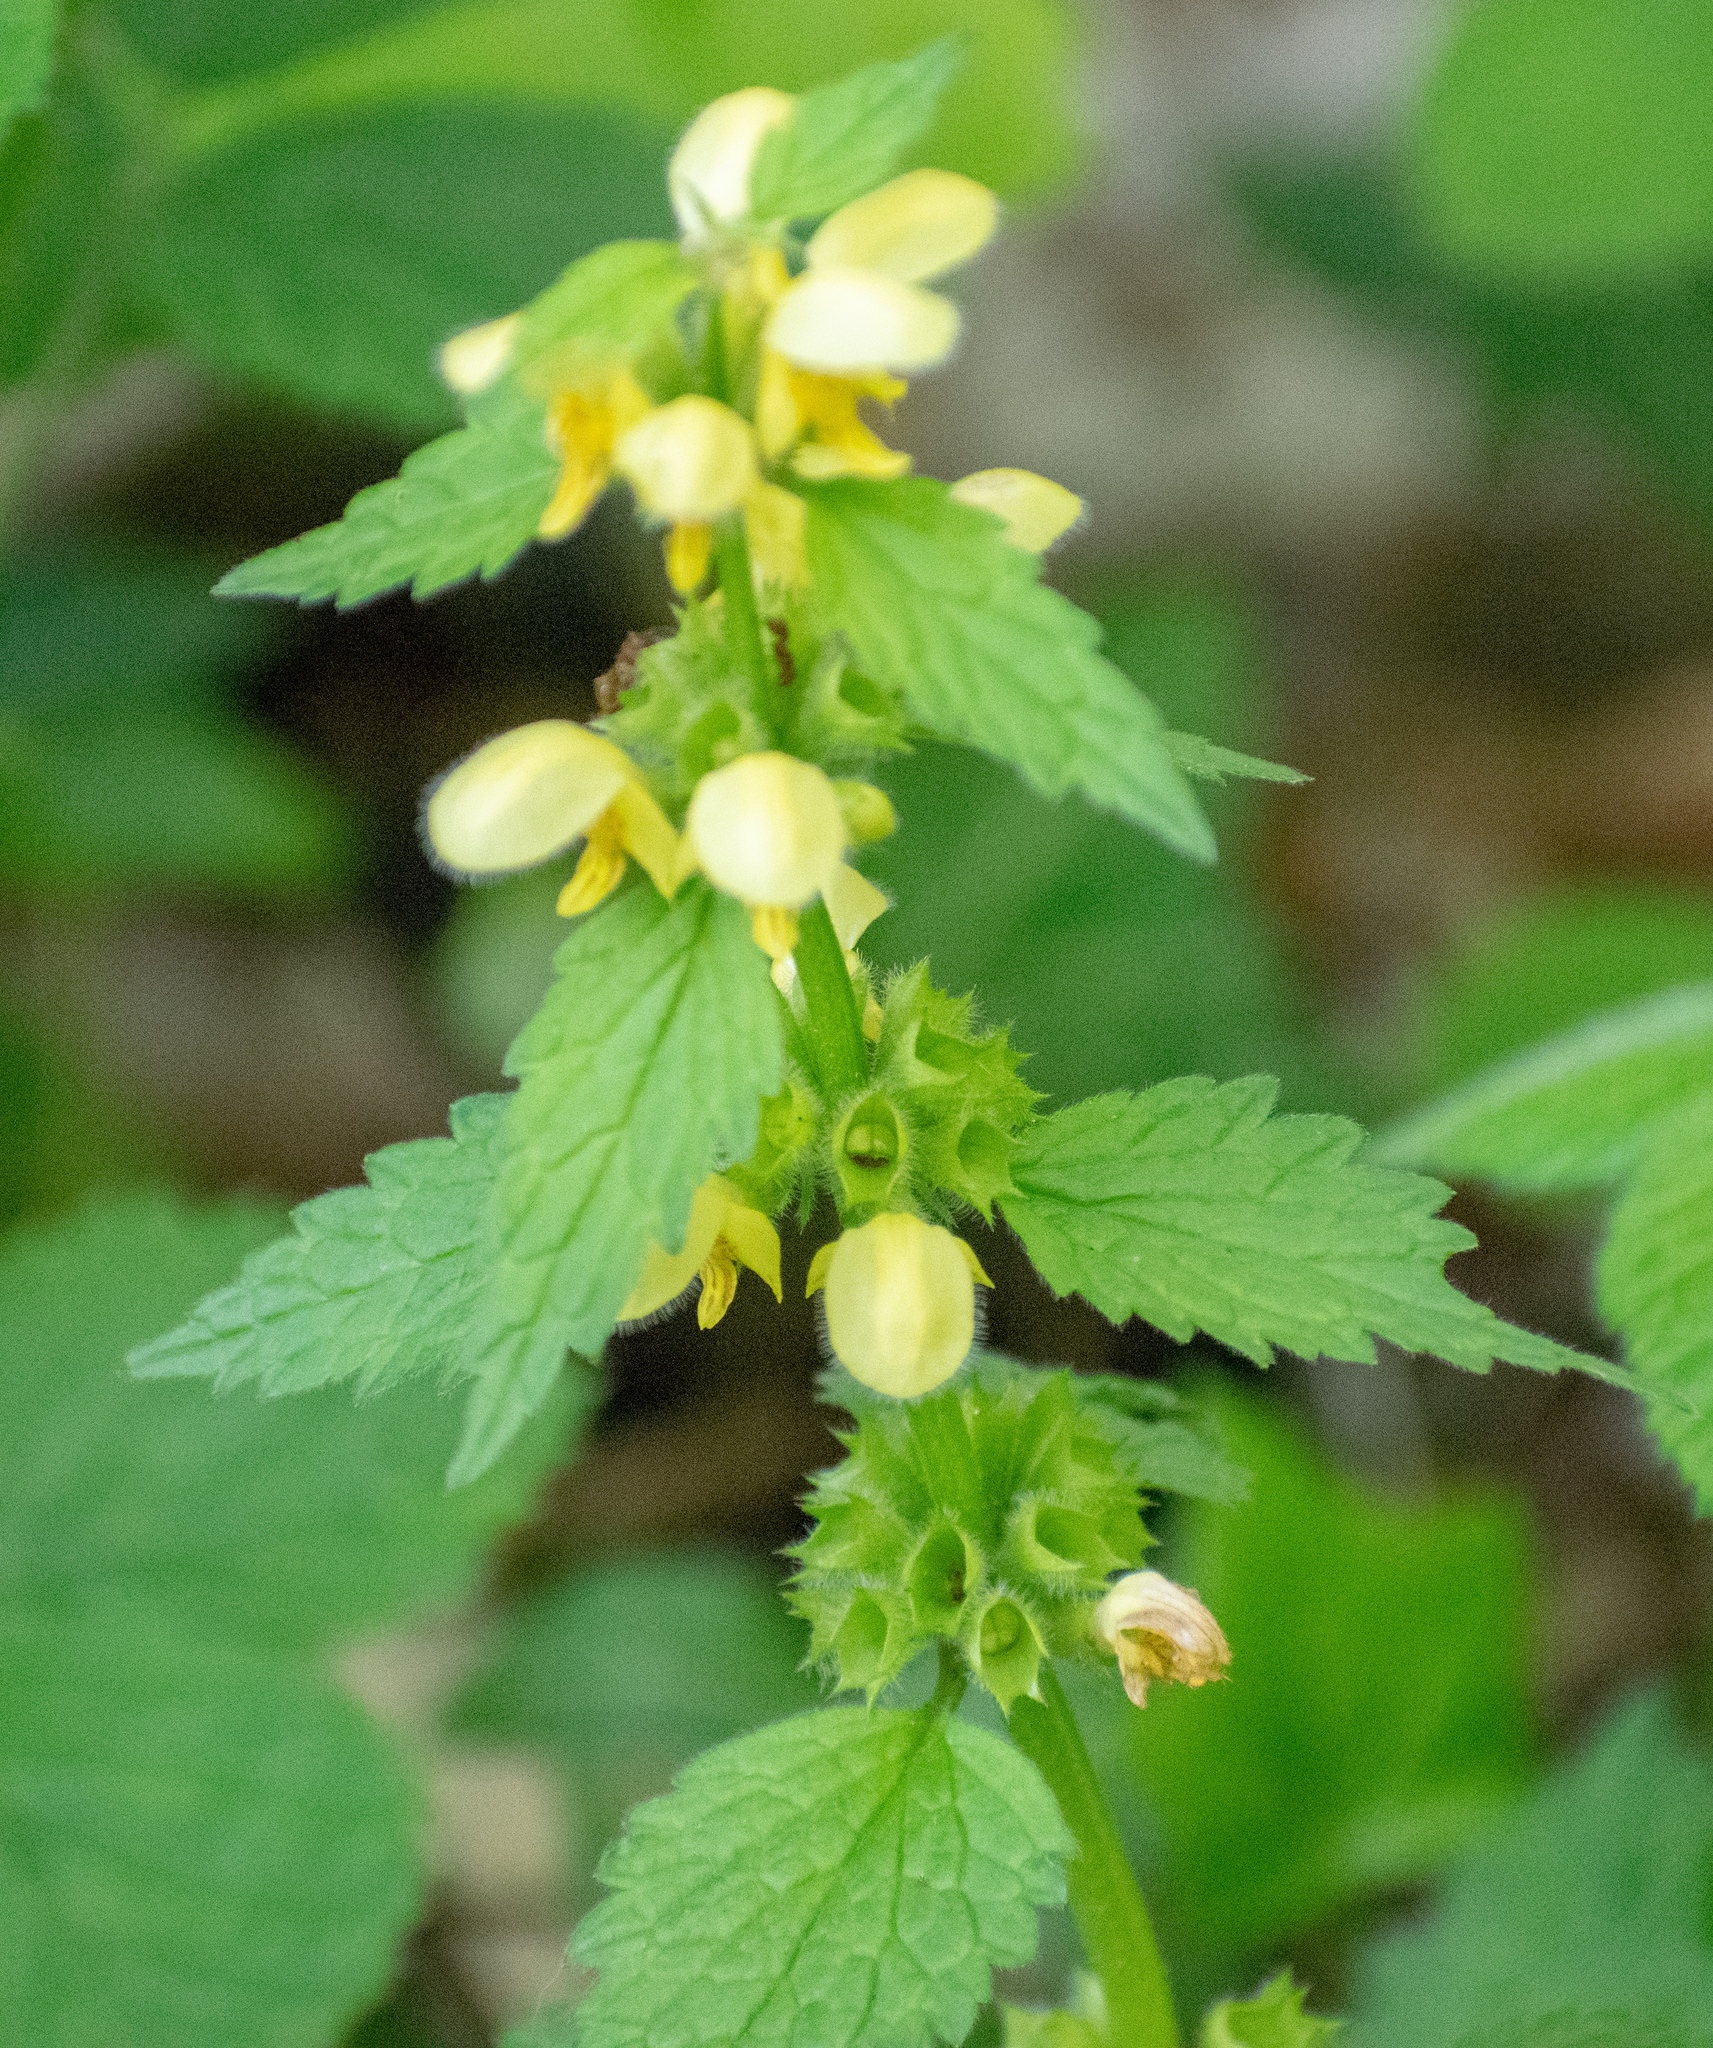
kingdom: Plantae
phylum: Tracheophyta
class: Magnoliopsida
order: Lamiales
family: Lamiaceae
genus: Lamium
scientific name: Lamium galeobdolon
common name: Yellow archangel
